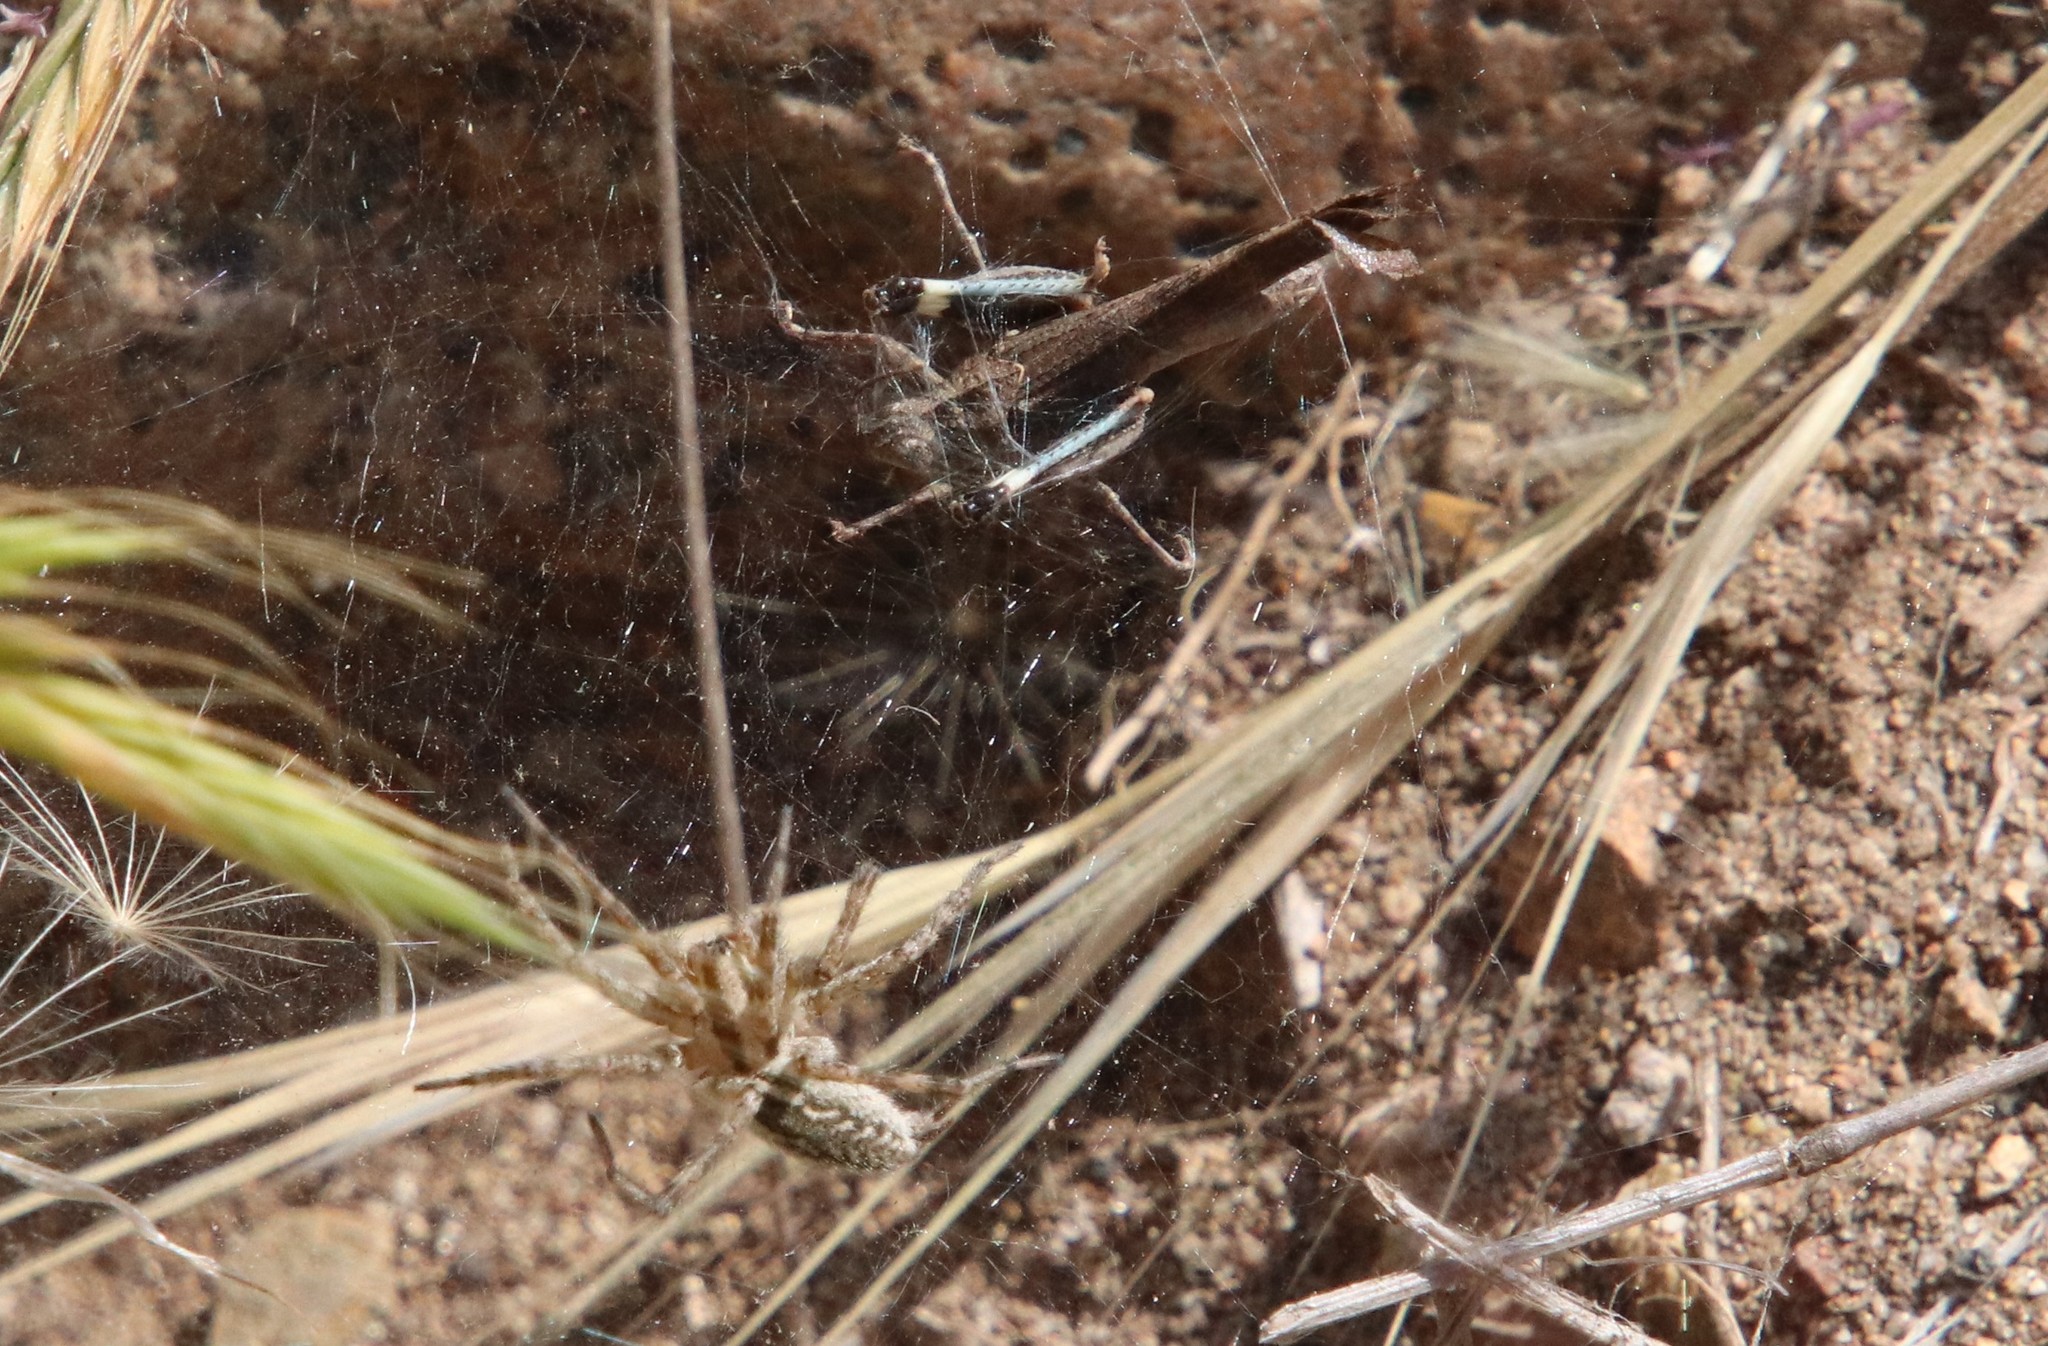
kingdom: Animalia
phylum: Arthropoda
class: Insecta
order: Orthoptera
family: Acrididae
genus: Lactista
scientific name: Lactista gibbosus
